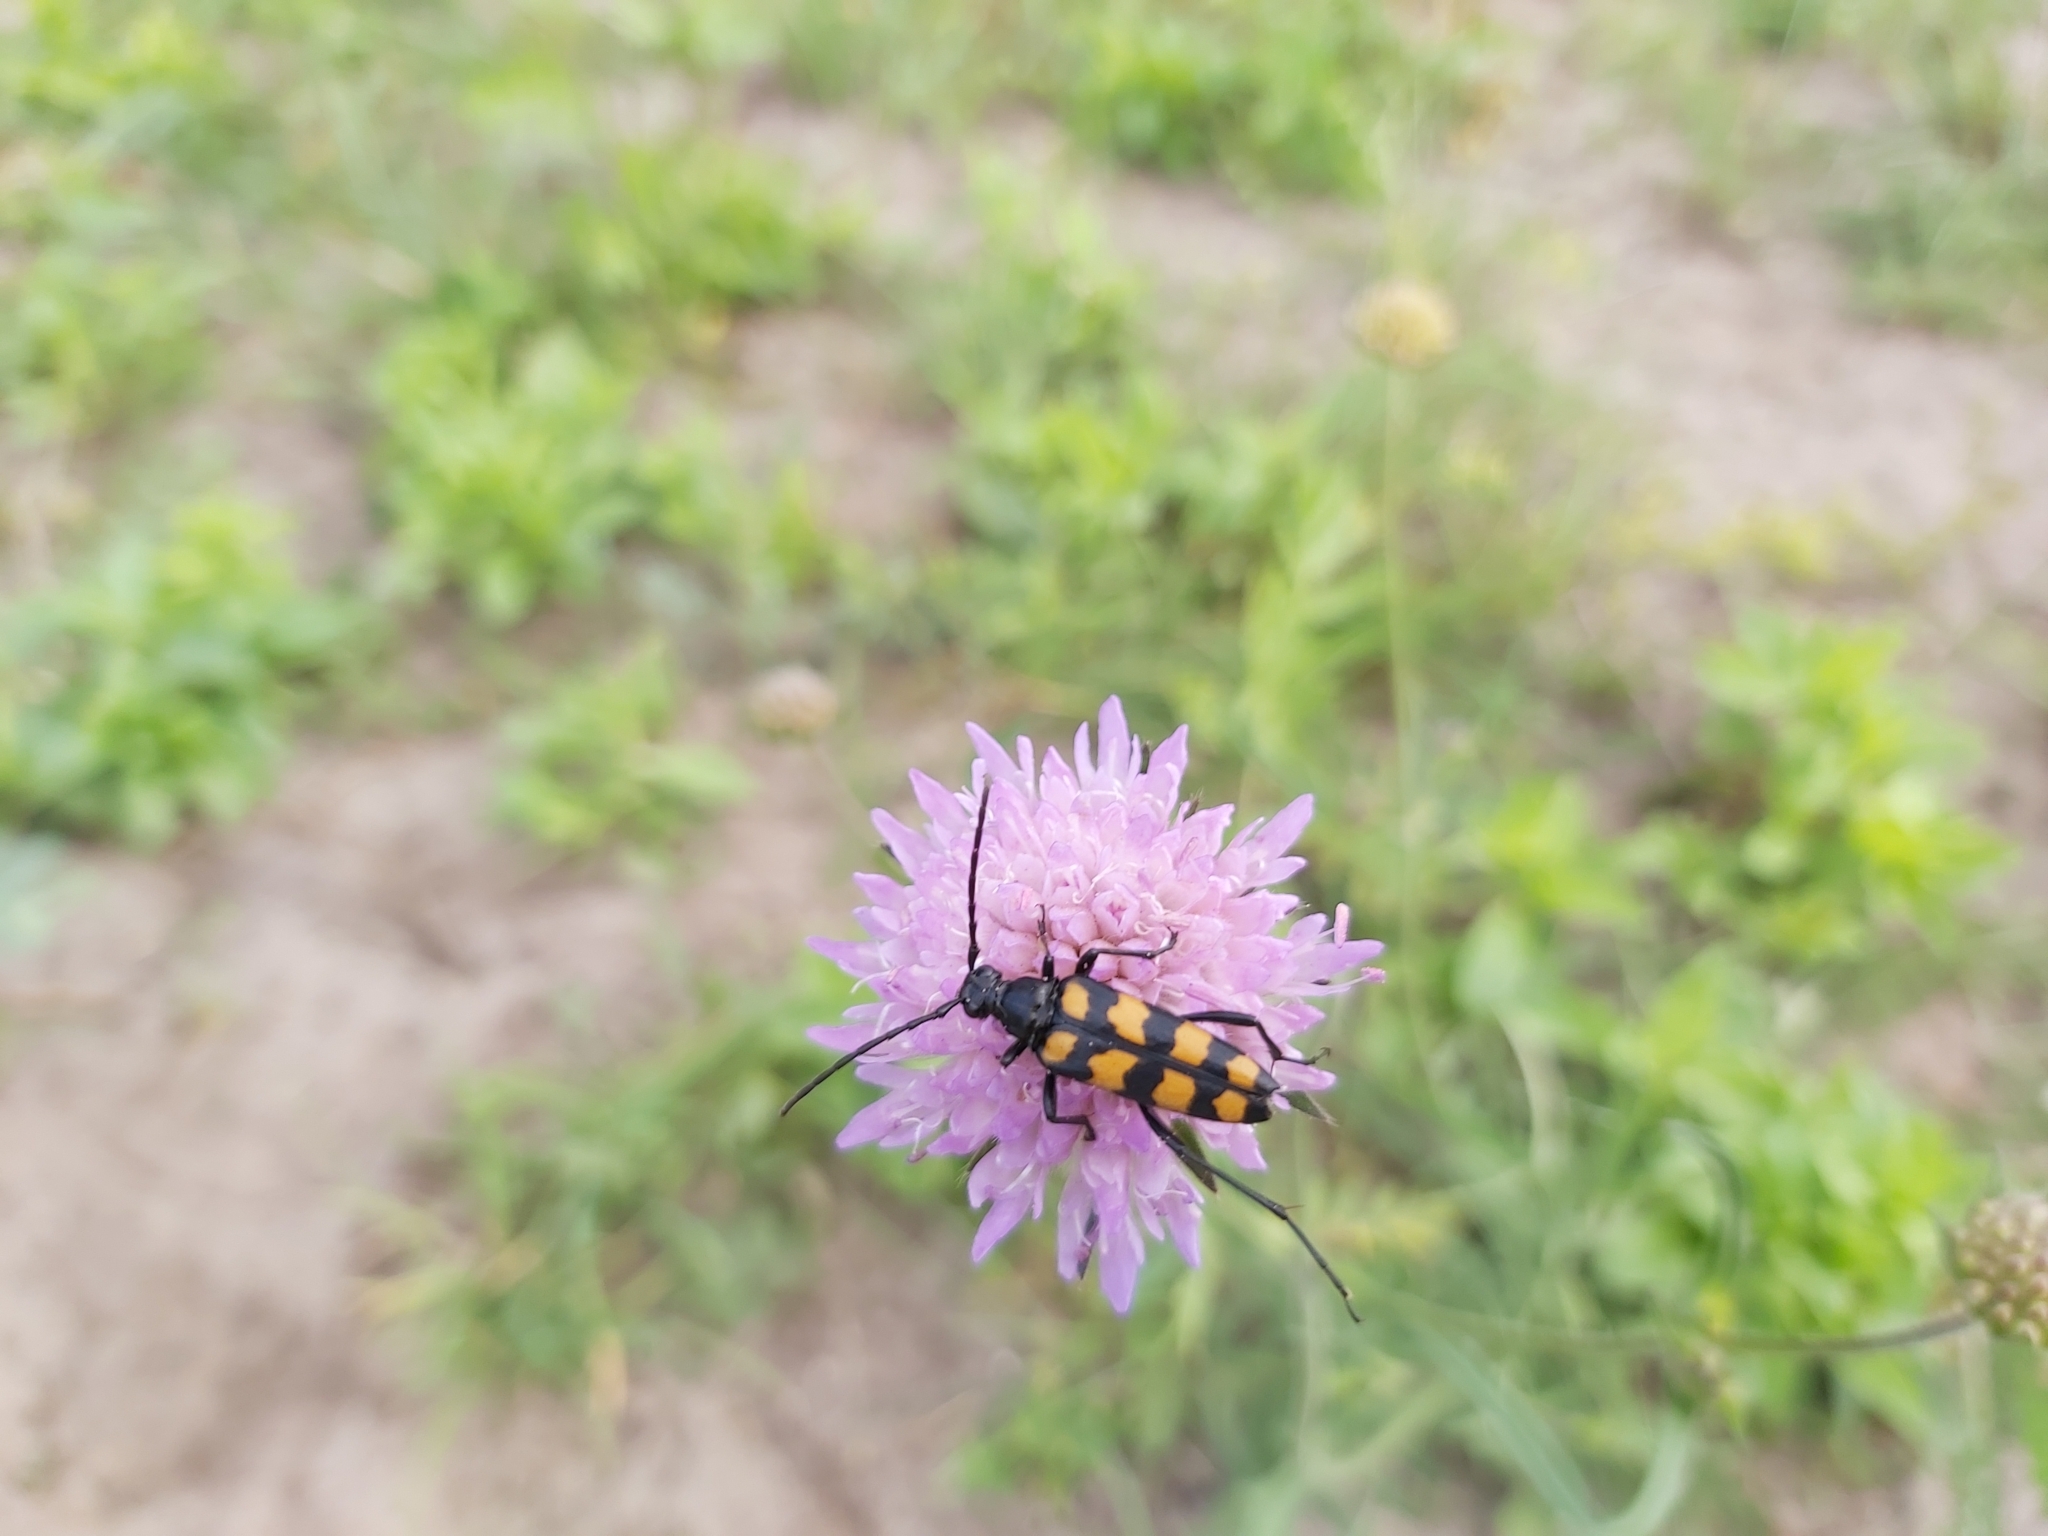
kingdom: Animalia
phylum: Arthropoda
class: Insecta
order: Coleoptera
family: Cerambycidae
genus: Leptura
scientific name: Leptura quadrifasciata
